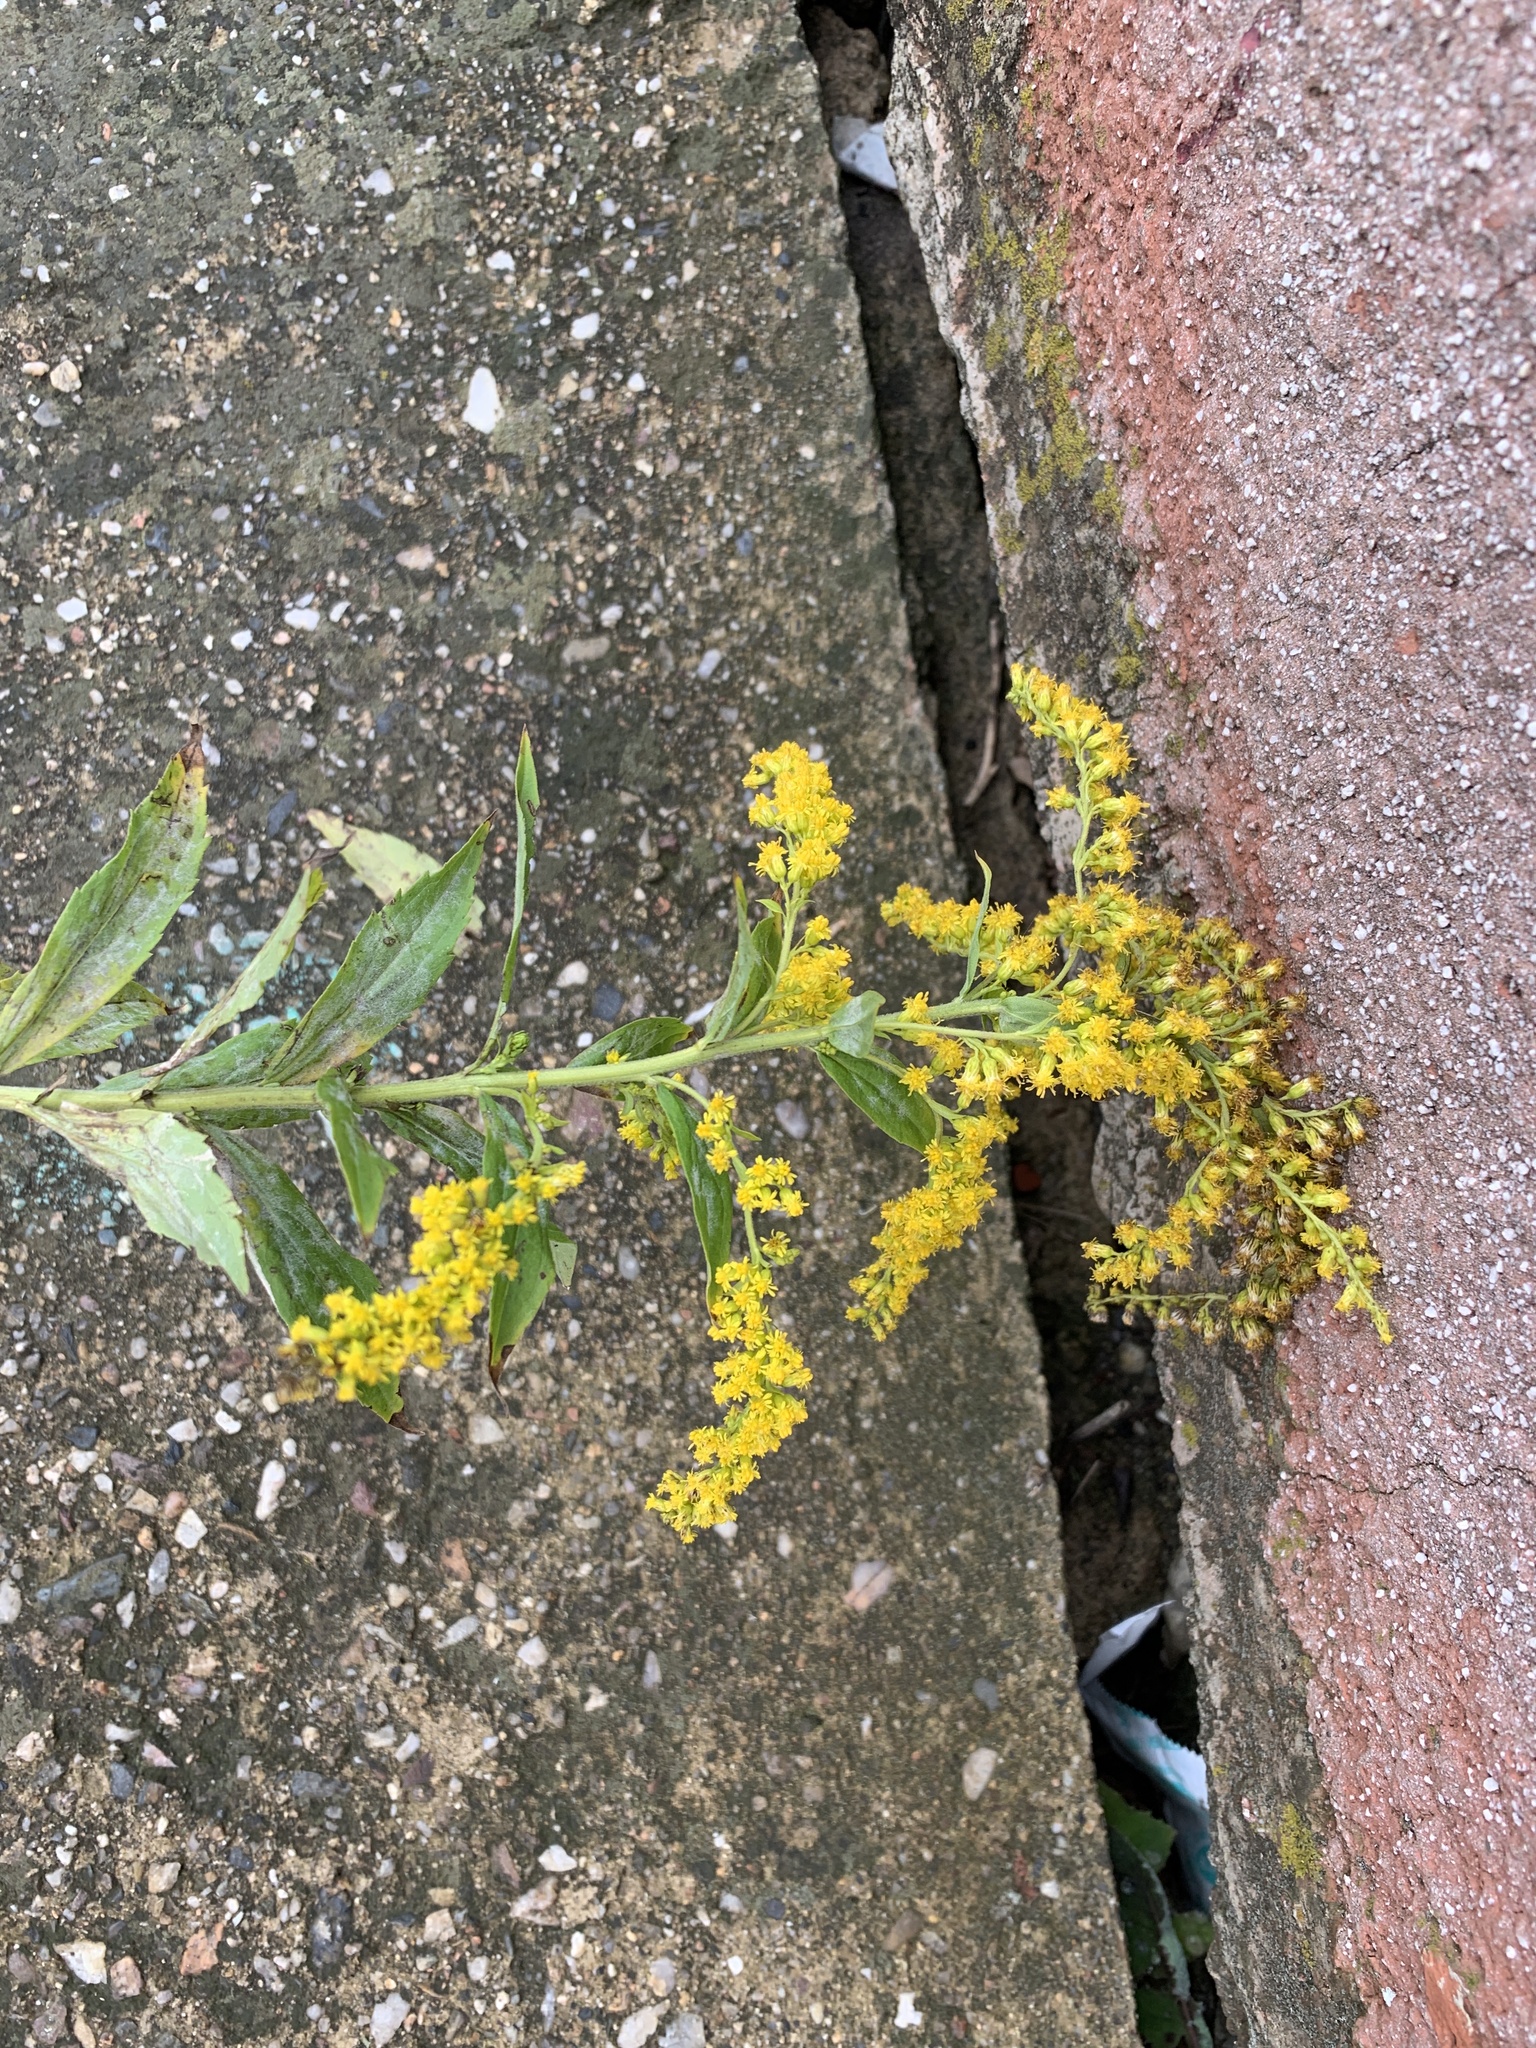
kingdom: Plantae
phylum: Tracheophyta
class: Magnoliopsida
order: Asterales
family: Asteraceae
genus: Solidago
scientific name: Solidago canadensis
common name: Canada goldenrod
